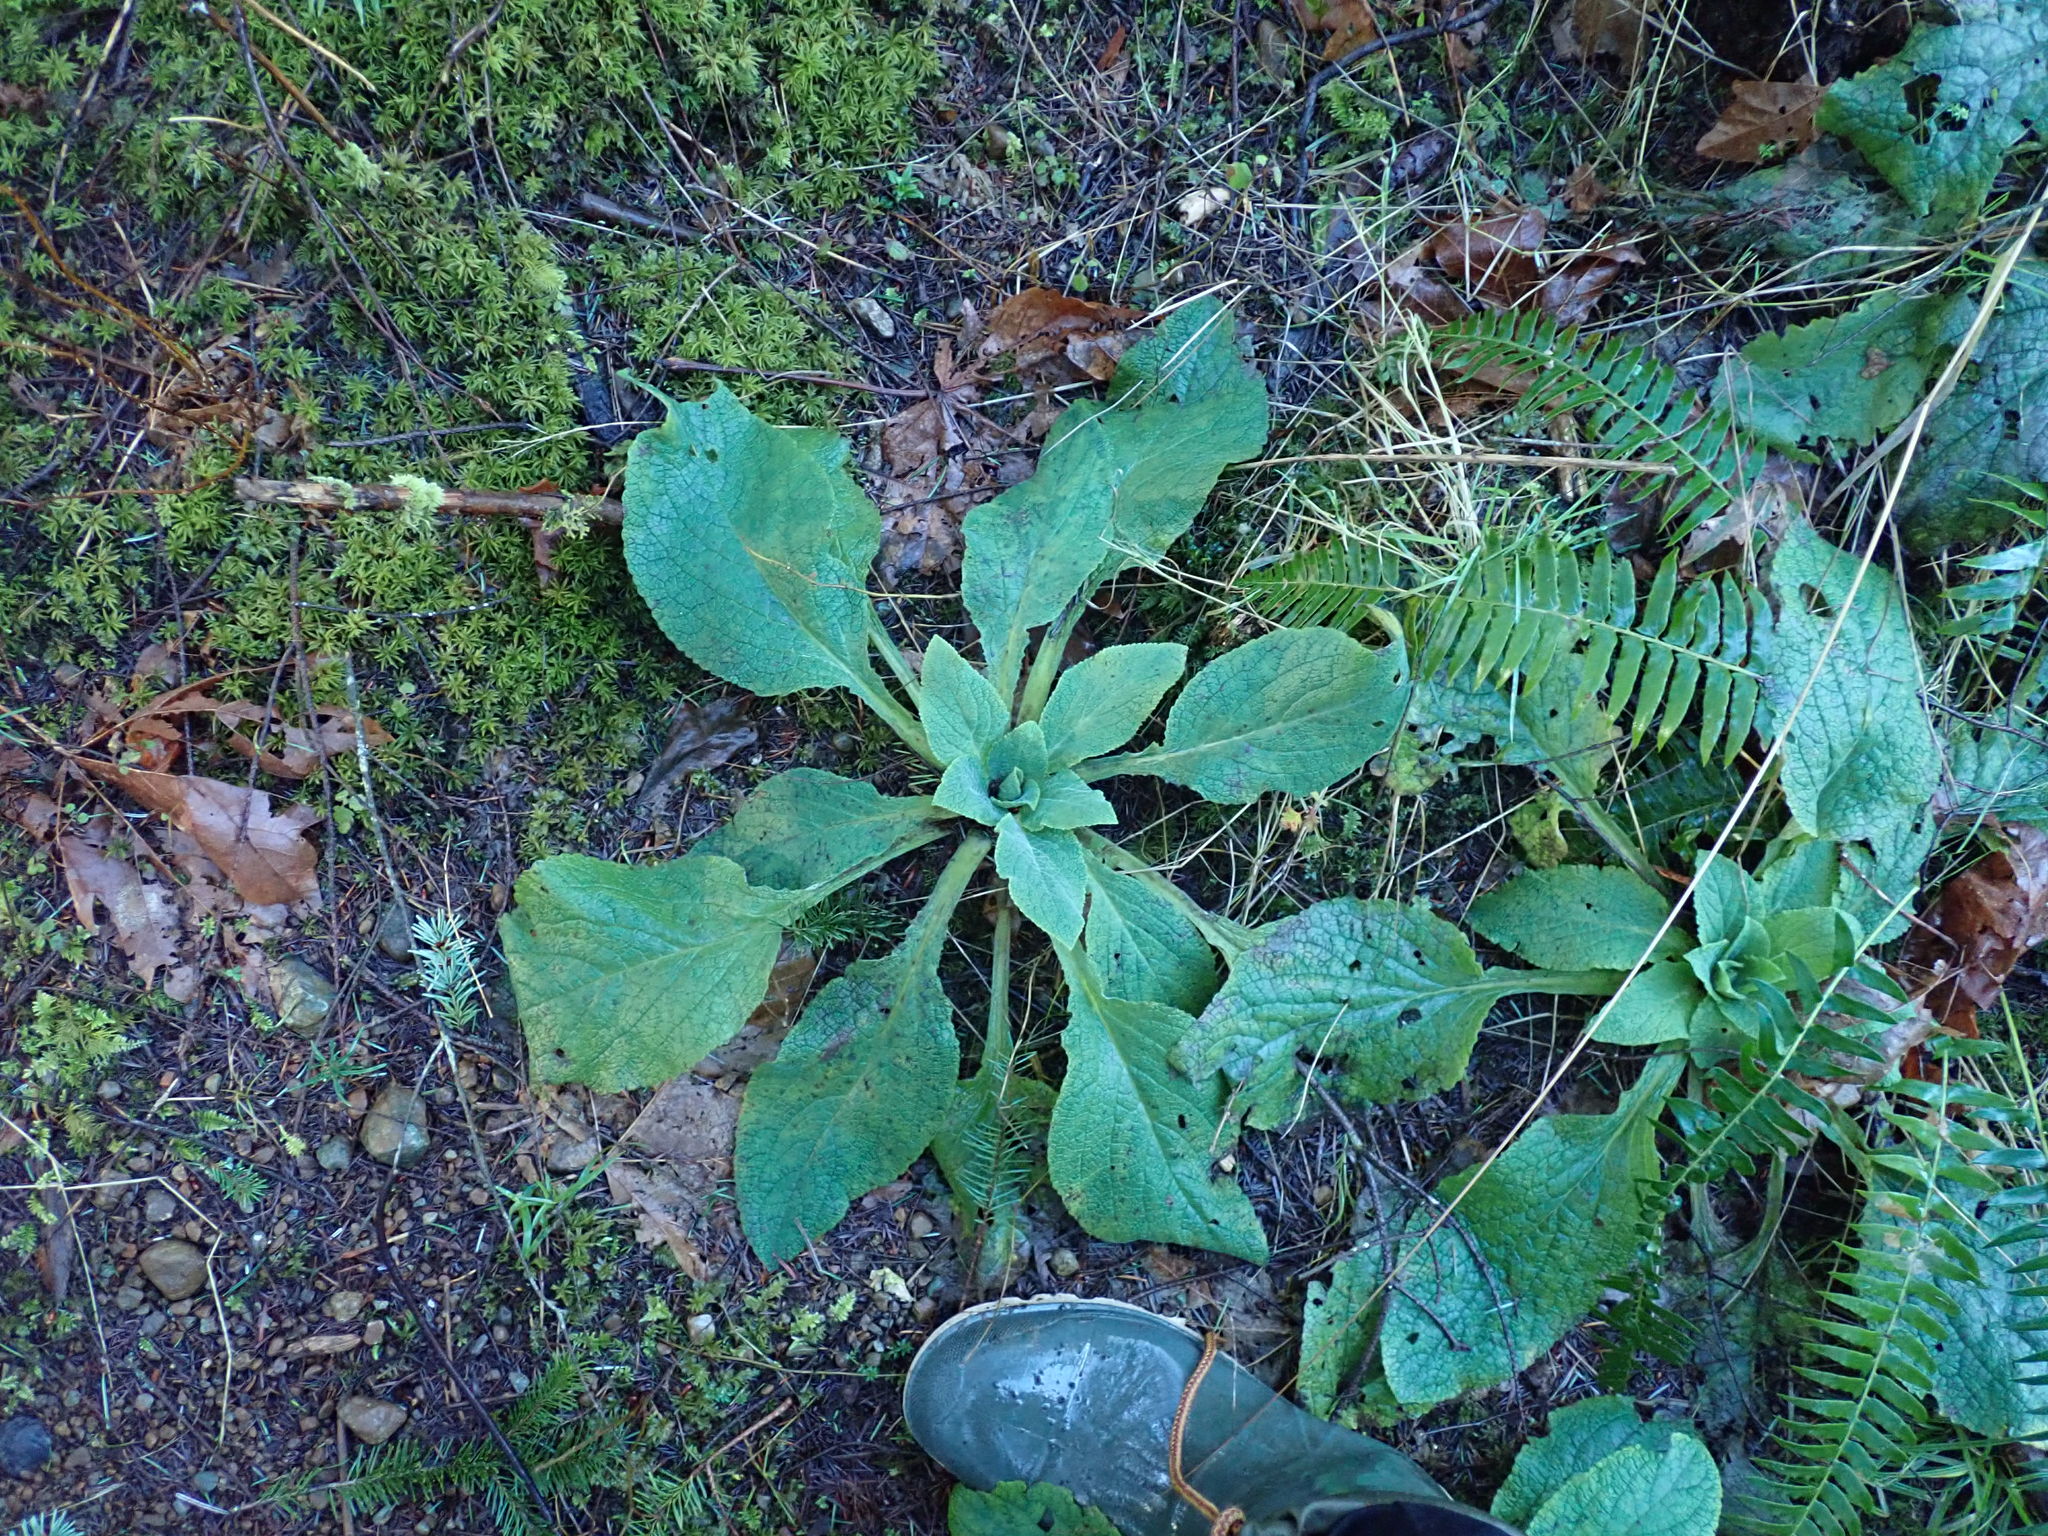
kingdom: Plantae
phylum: Tracheophyta
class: Magnoliopsida
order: Lamiales
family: Plantaginaceae
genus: Digitalis
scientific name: Digitalis purpurea
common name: Foxglove
